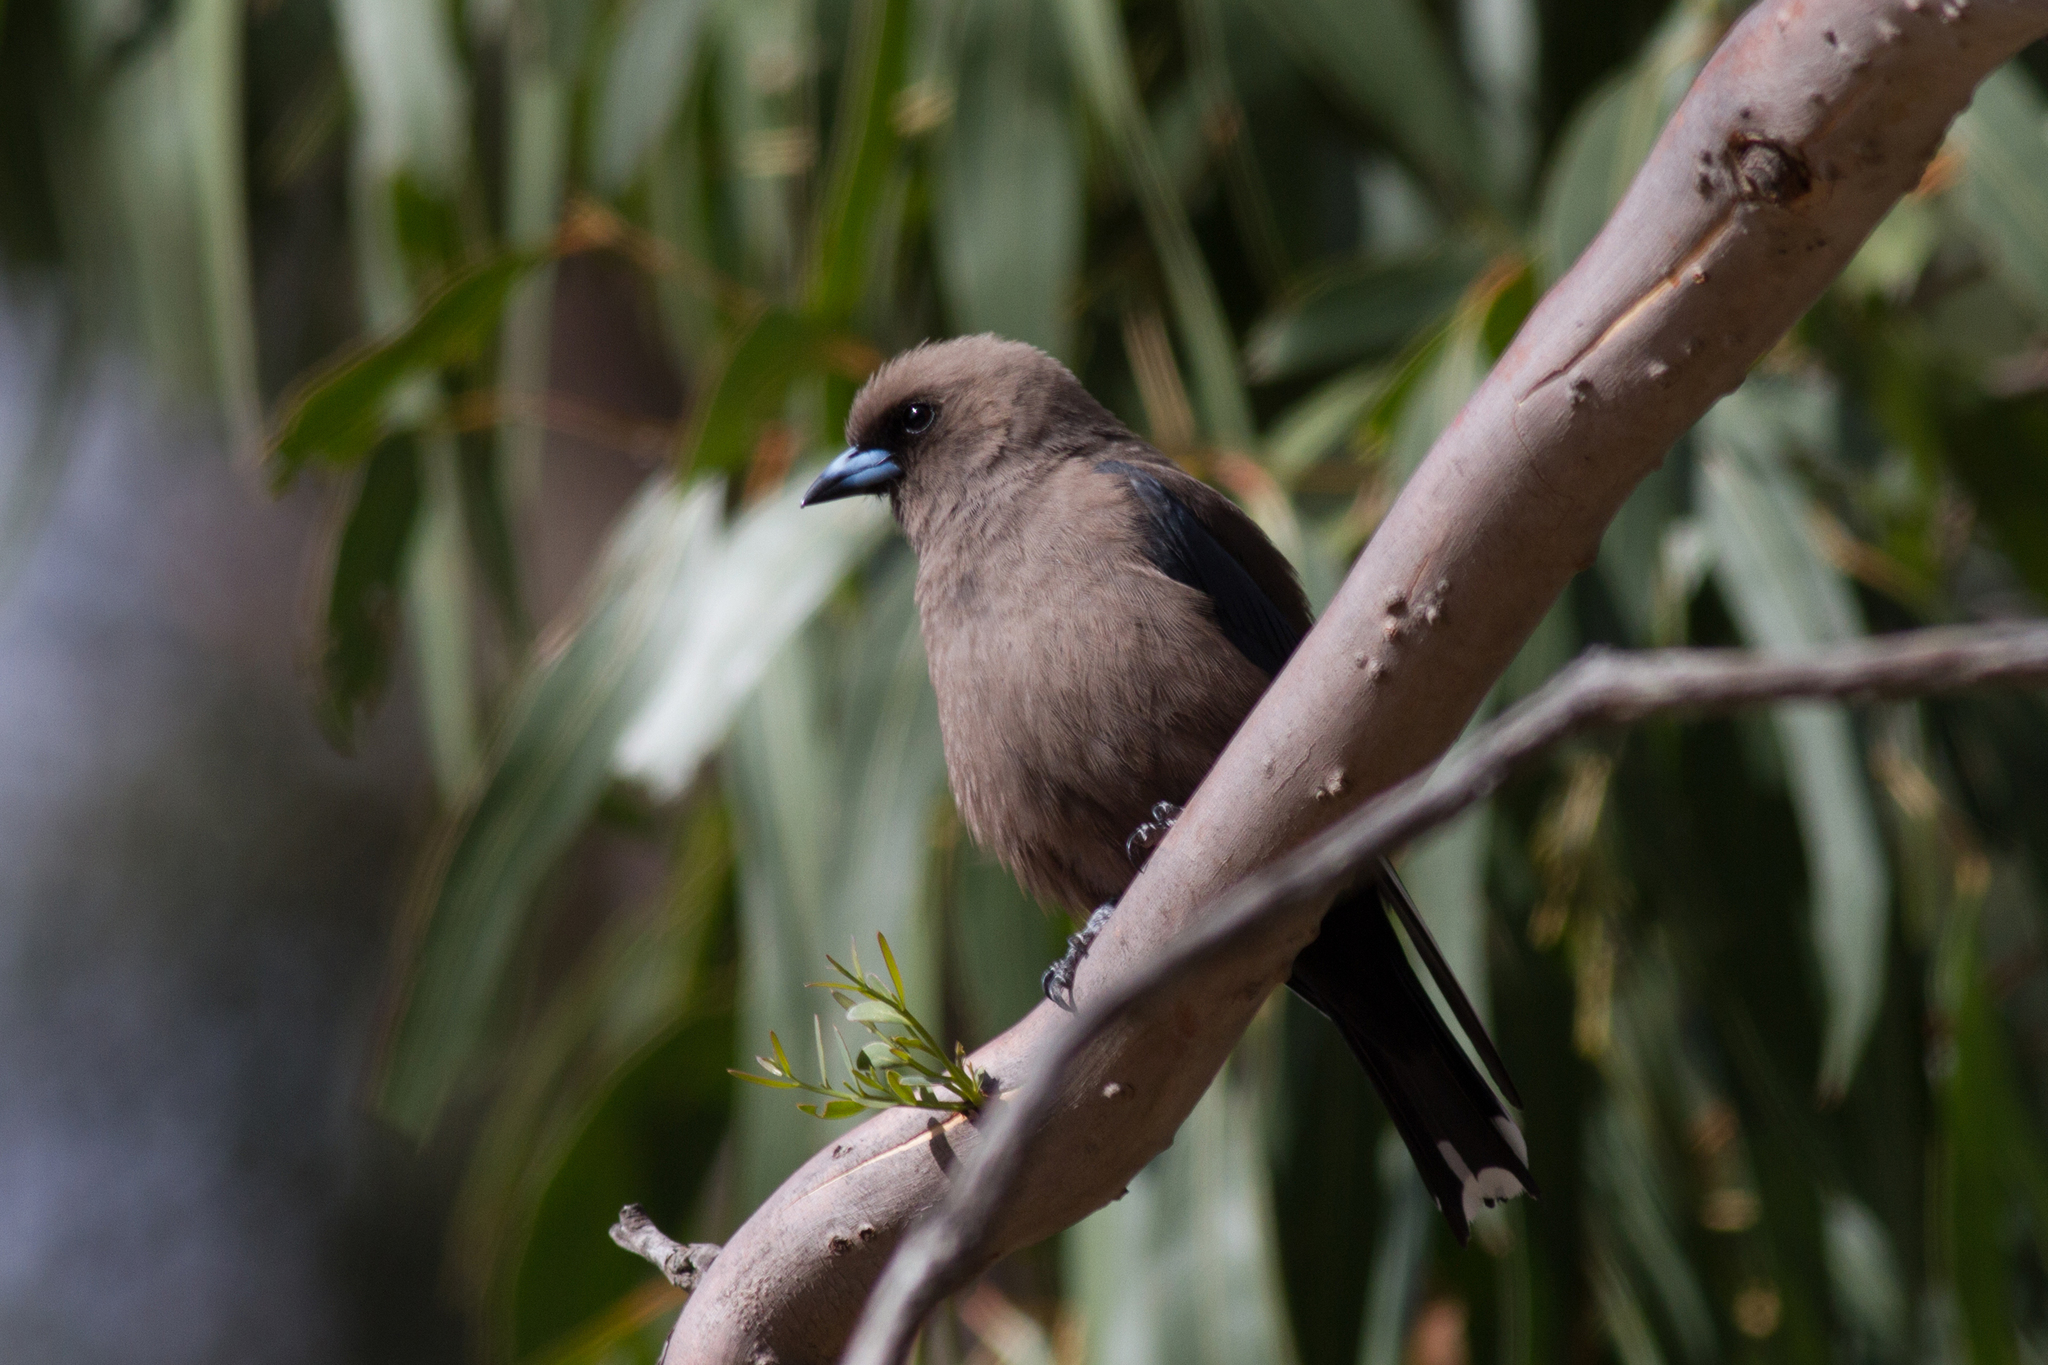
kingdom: Animalia
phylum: Chordata
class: Aves
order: Passeriformes
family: Artamidae
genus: Artamus
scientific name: Artamus cyanopterus
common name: Dusky woodswallow
